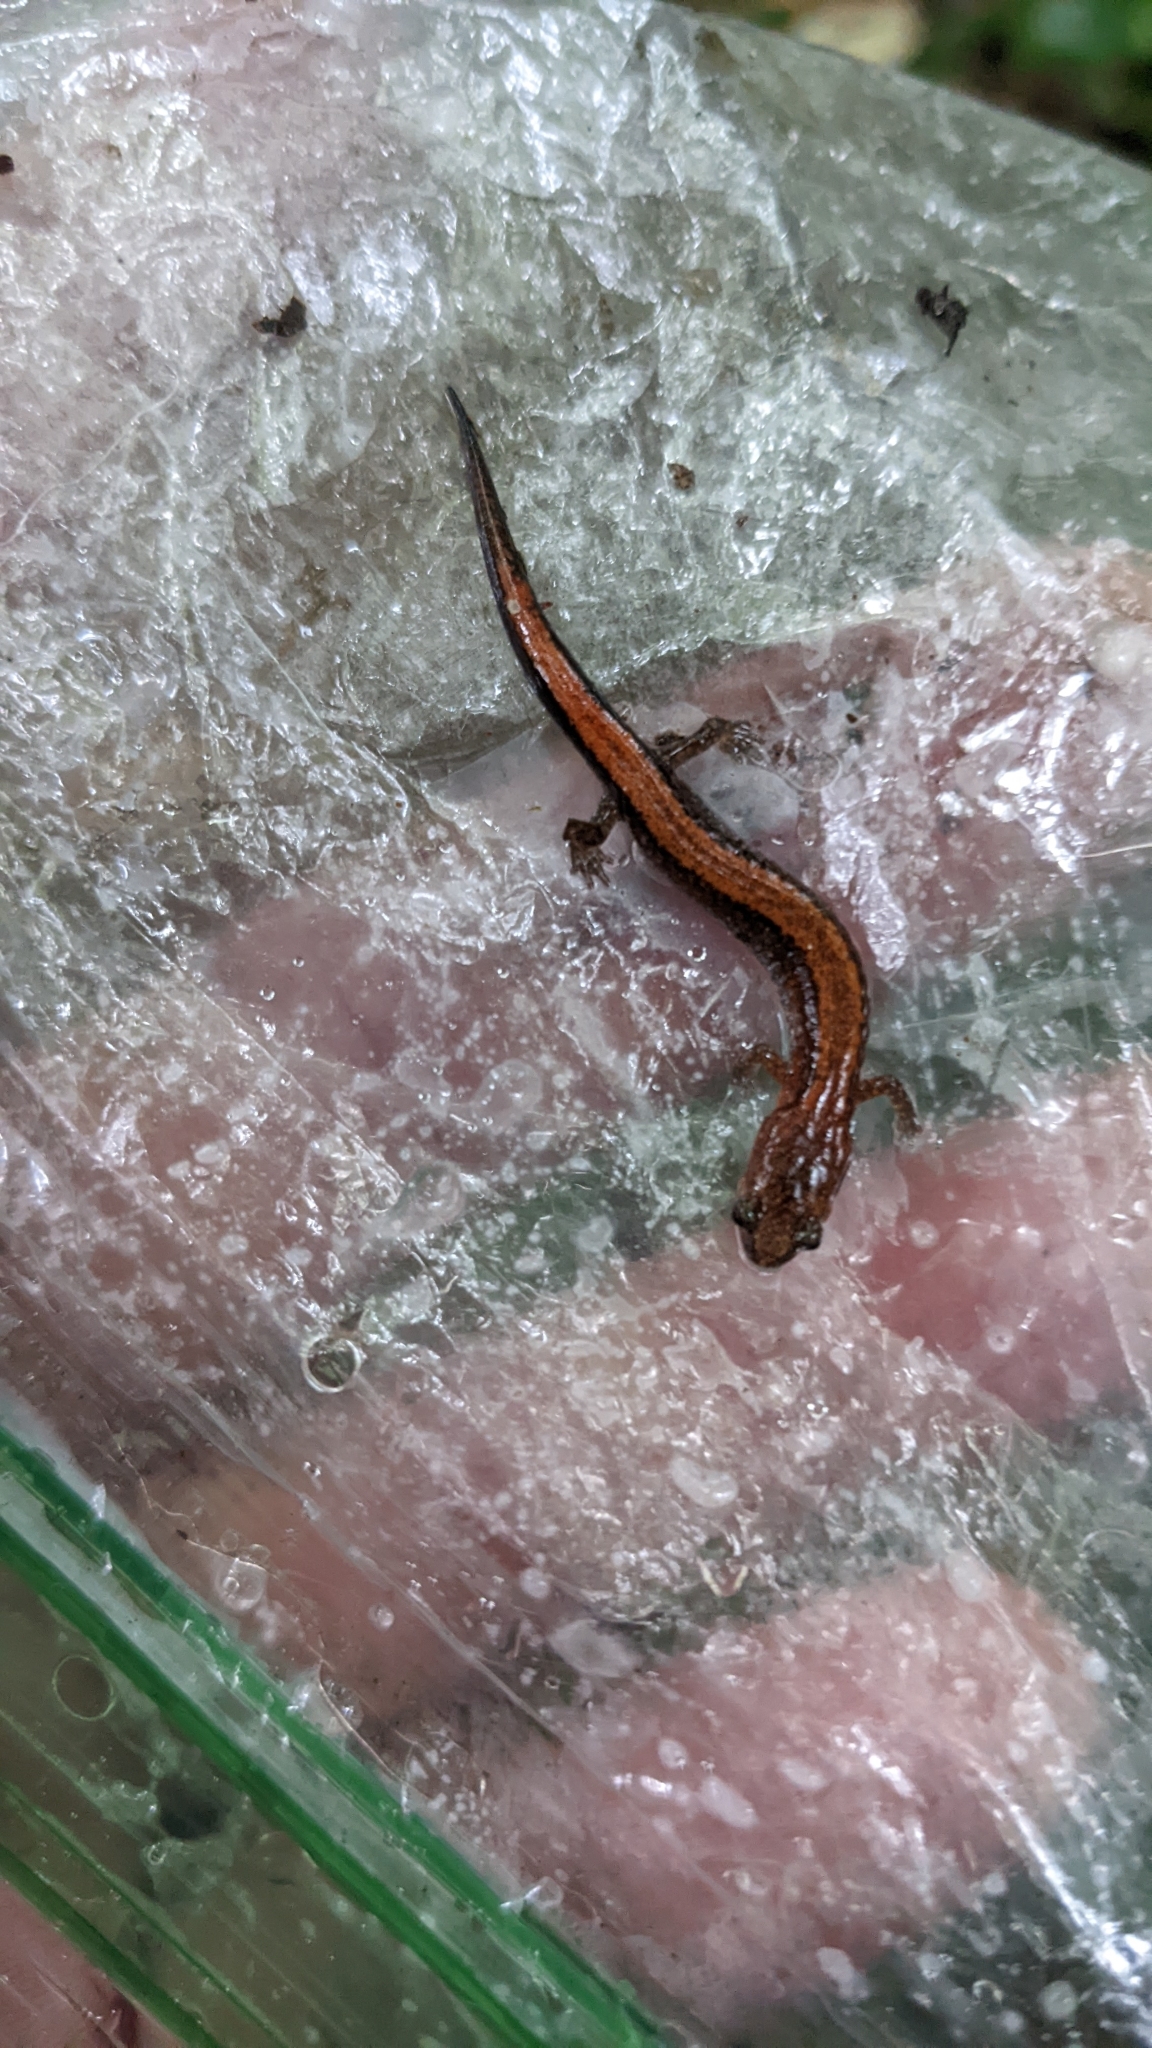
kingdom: Animalia
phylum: Chordata
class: Amphibia
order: Caudata
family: Plethodontidae
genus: Plethodon
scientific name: Plethodon serratus
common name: Southern red-backed salamander
